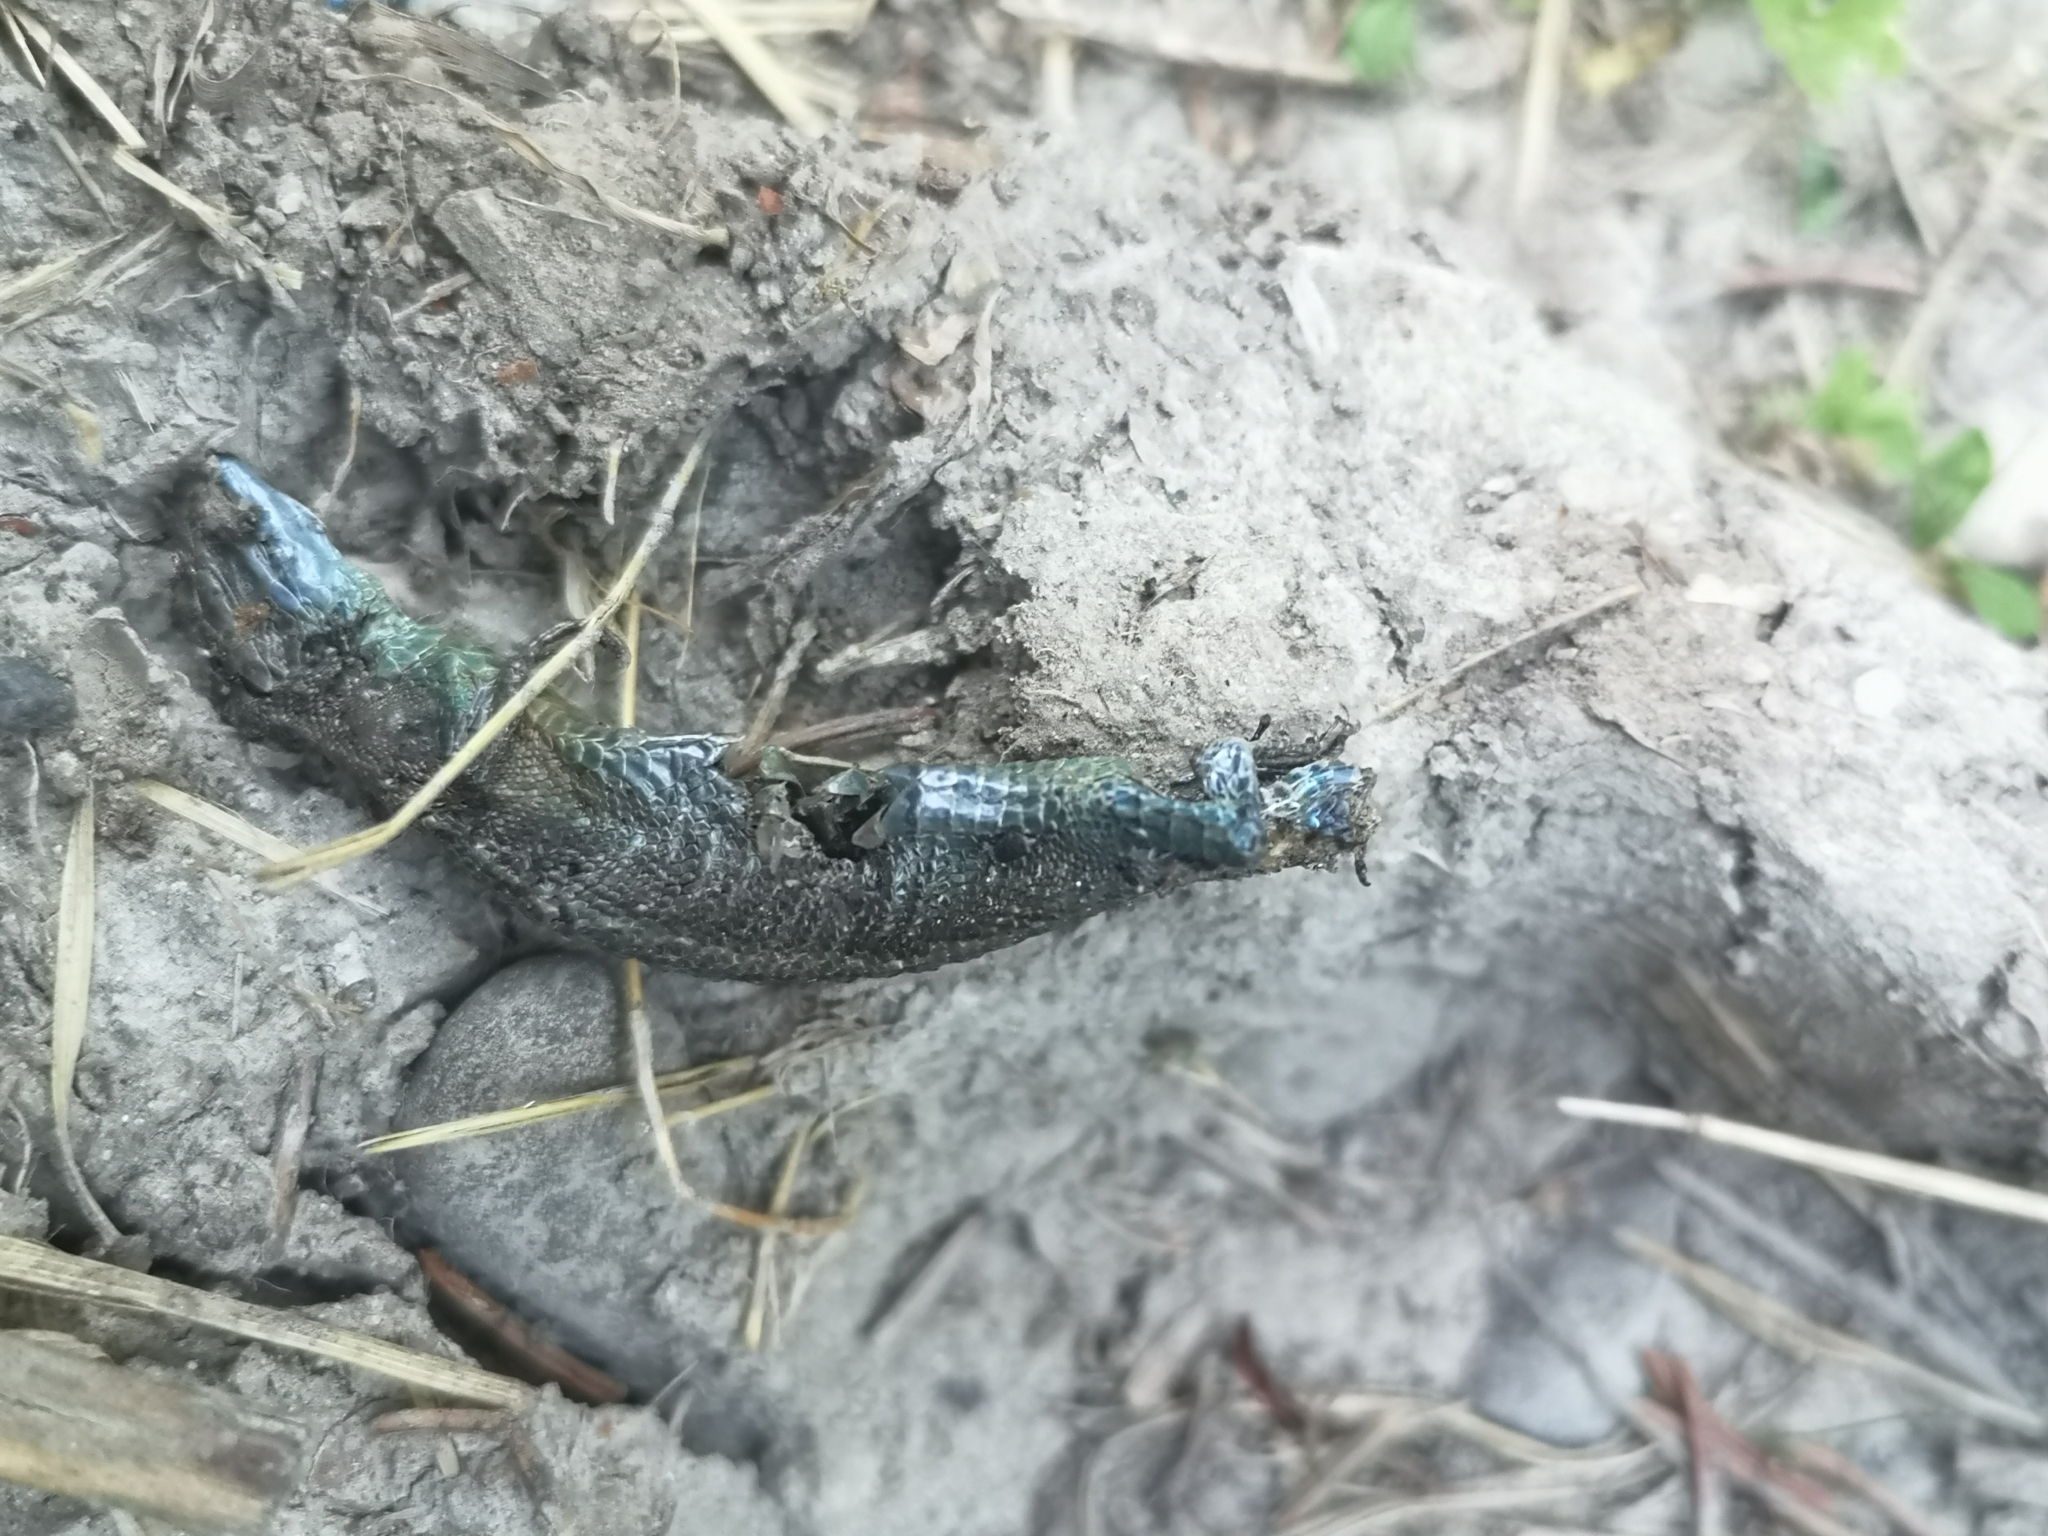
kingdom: Animalia
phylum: Chordata
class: Squamata
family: Lacertidae
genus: Zootoca
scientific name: Zootoca vivipara
